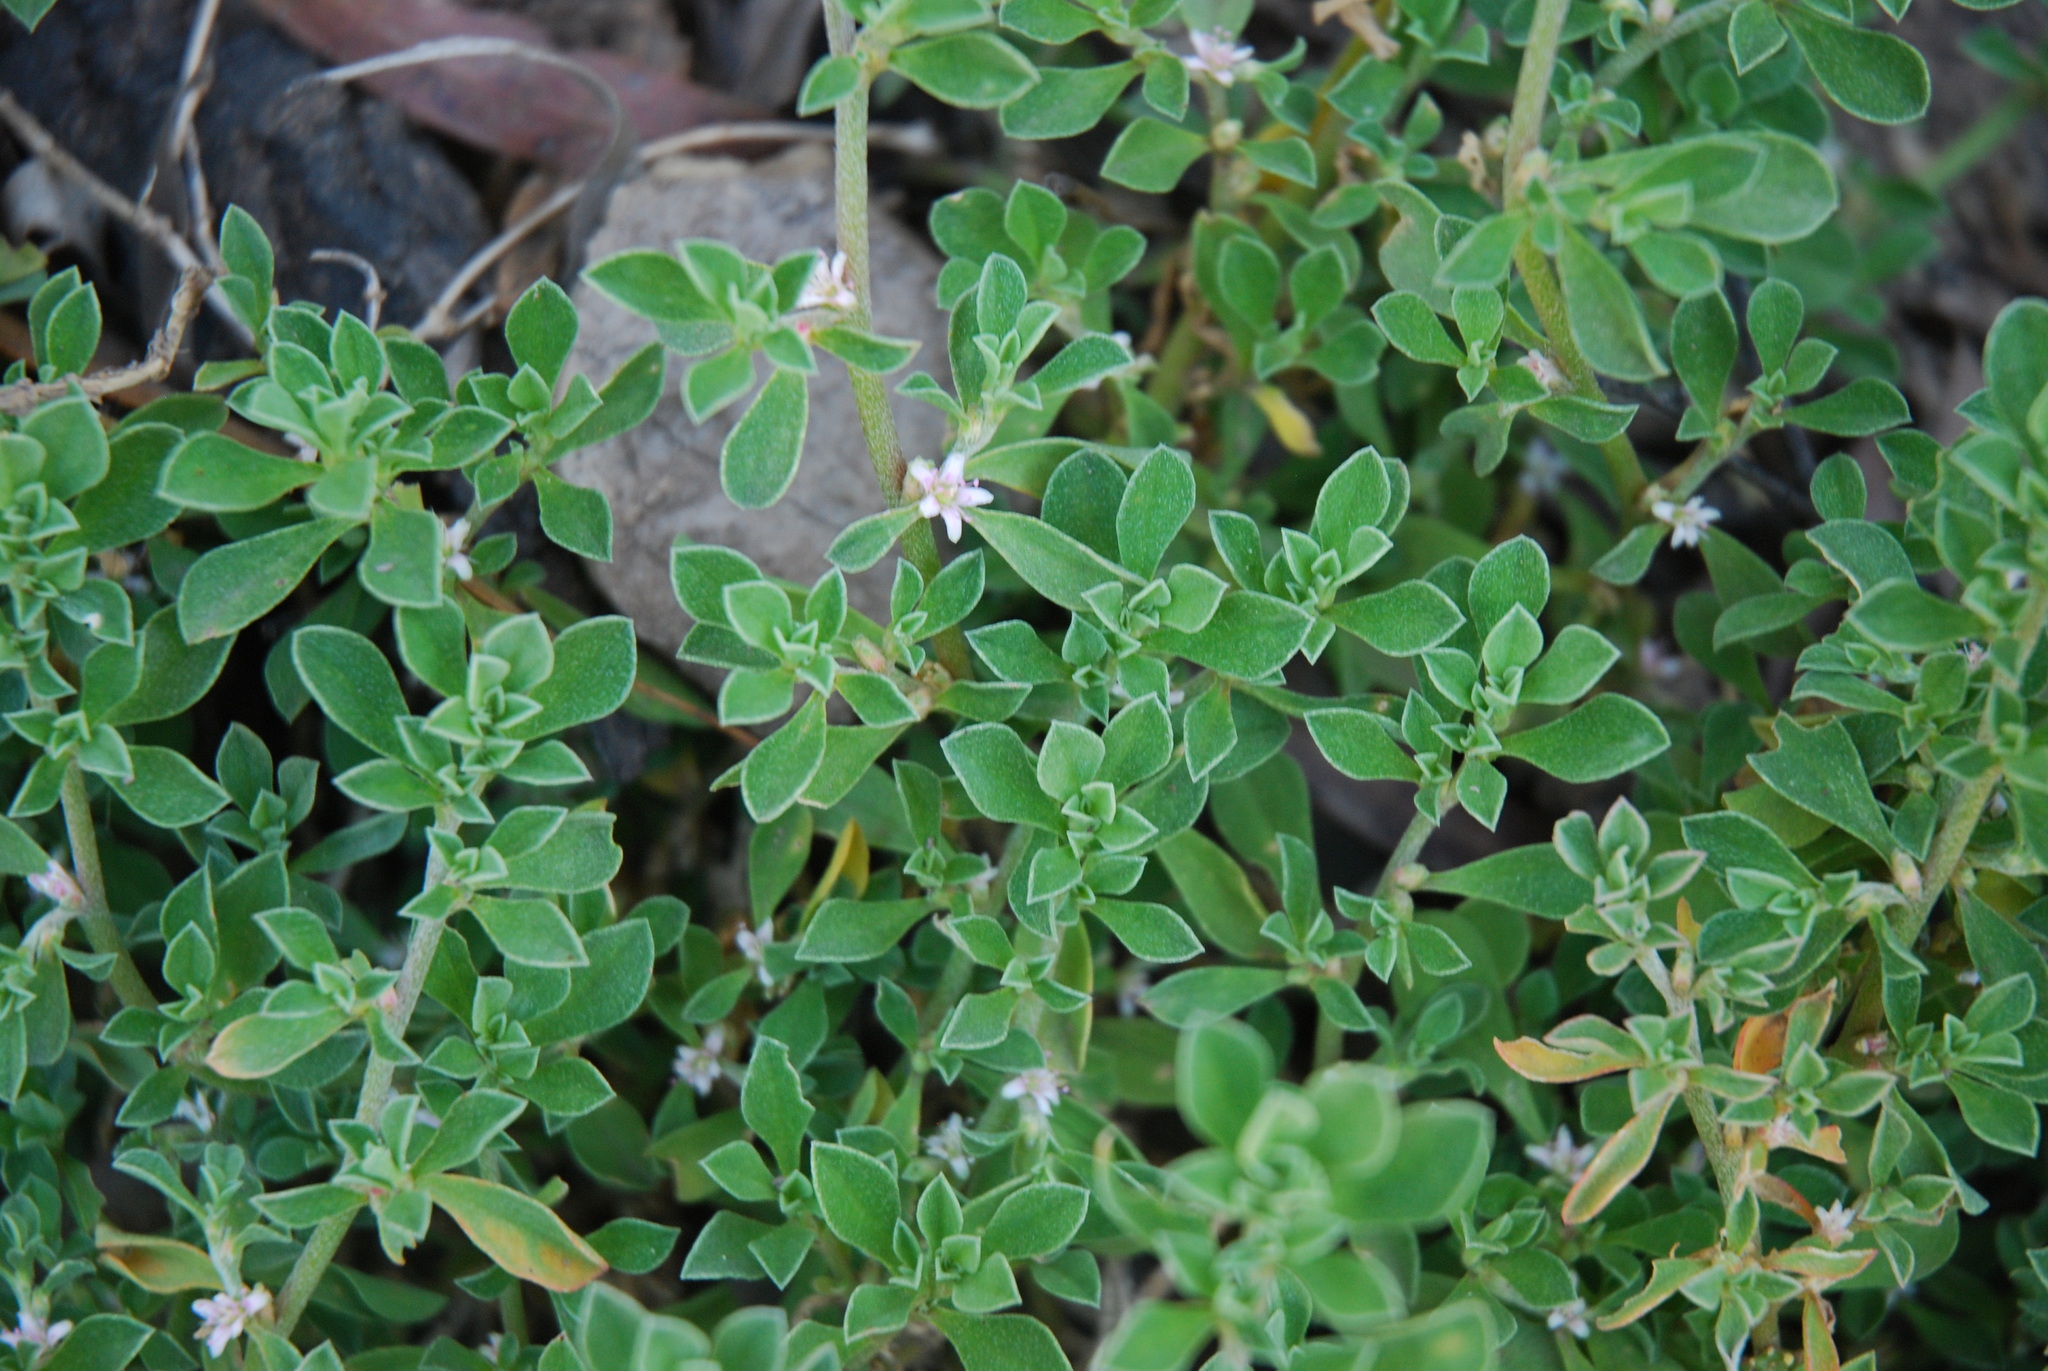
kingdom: Plantae
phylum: Tracheophyta
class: Magnoliopsida
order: Caryophyllales
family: Aizoaceae
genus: Aizoon
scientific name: Aizoon pubescens
